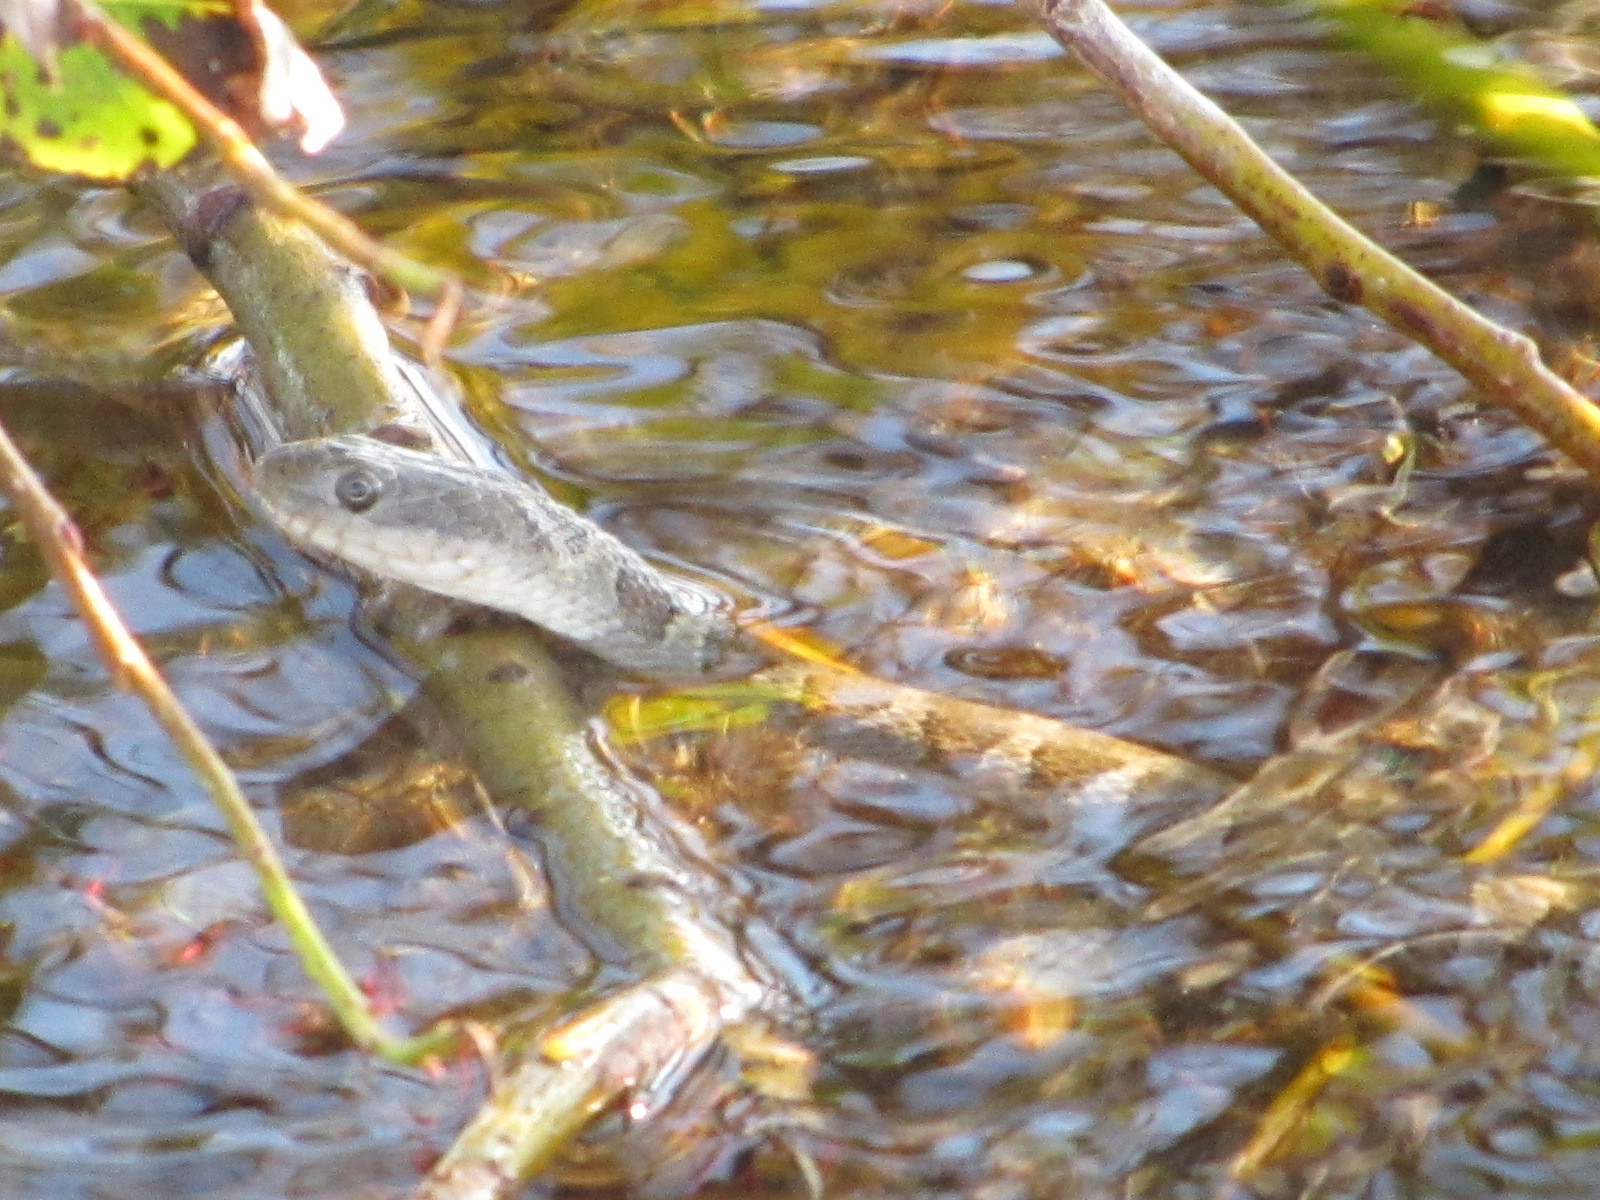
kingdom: Animalia
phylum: Chordata
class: Squamata
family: Colubridae
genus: Nerodia
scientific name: Nerodia sipedon
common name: Northern water snake
